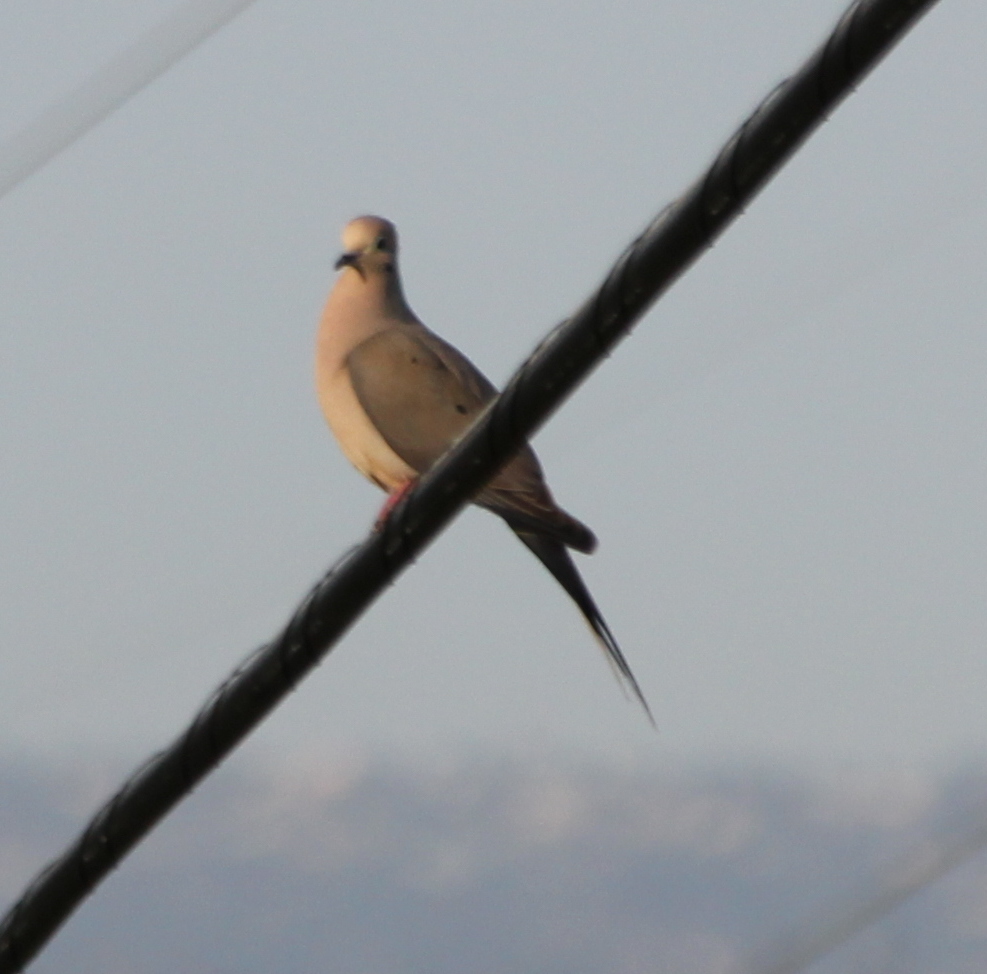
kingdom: Animalia
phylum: Chordata
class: Aves
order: Columbiformes
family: Columbidae
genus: Zenaida
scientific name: Zenaida macroura
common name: Mourning dove
